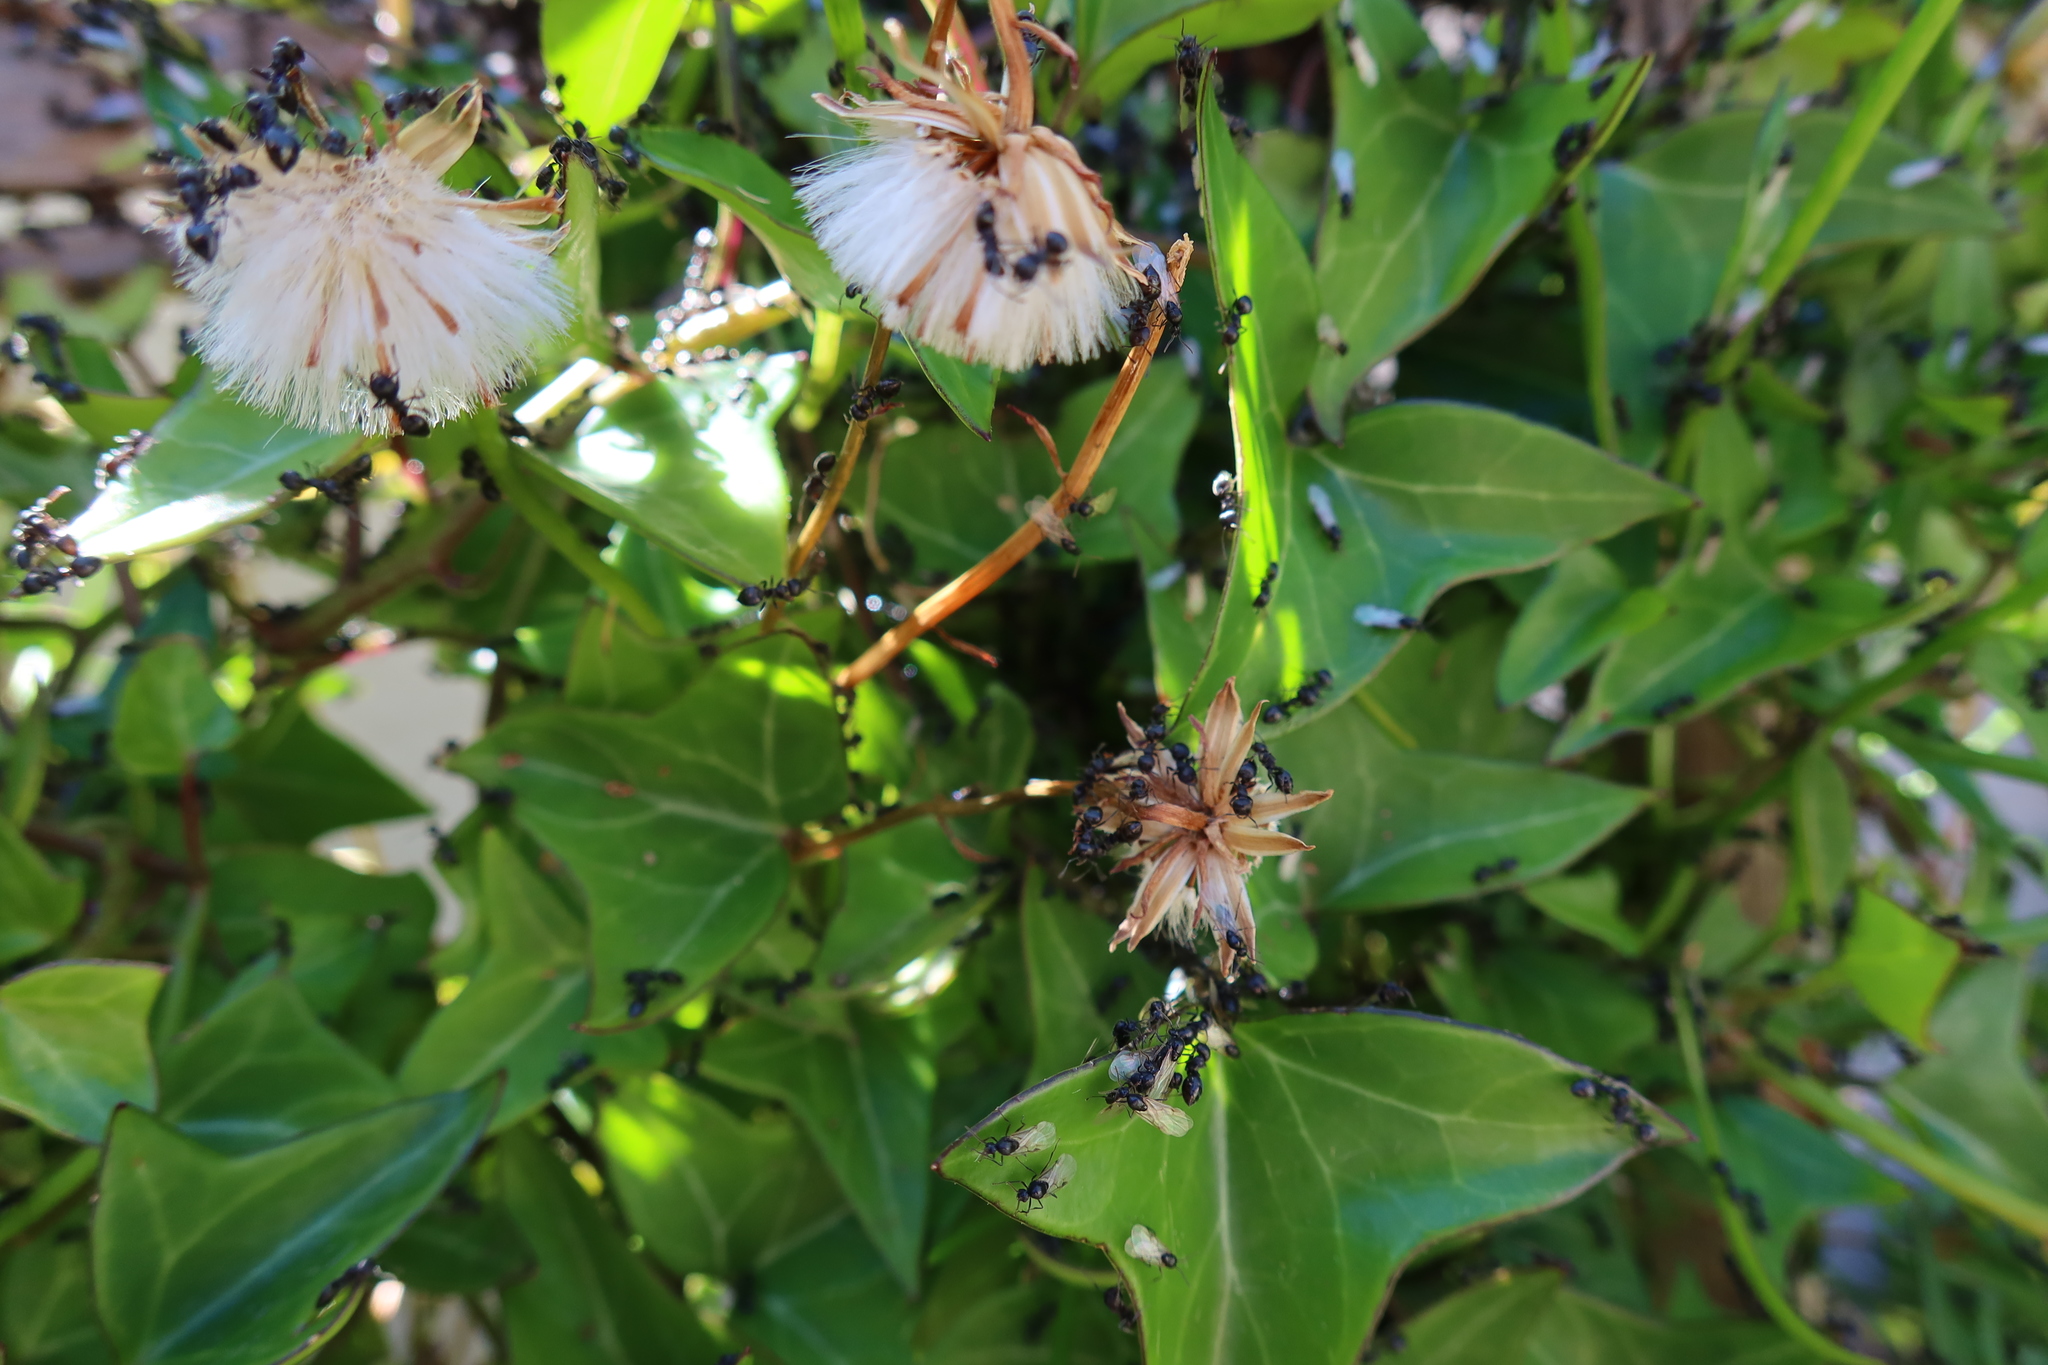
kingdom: Animalia
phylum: Arthropoda
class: Insecta
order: Hymenoptera
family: Formicidae
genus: Crematogaster
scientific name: Crematogaster peringueyi
